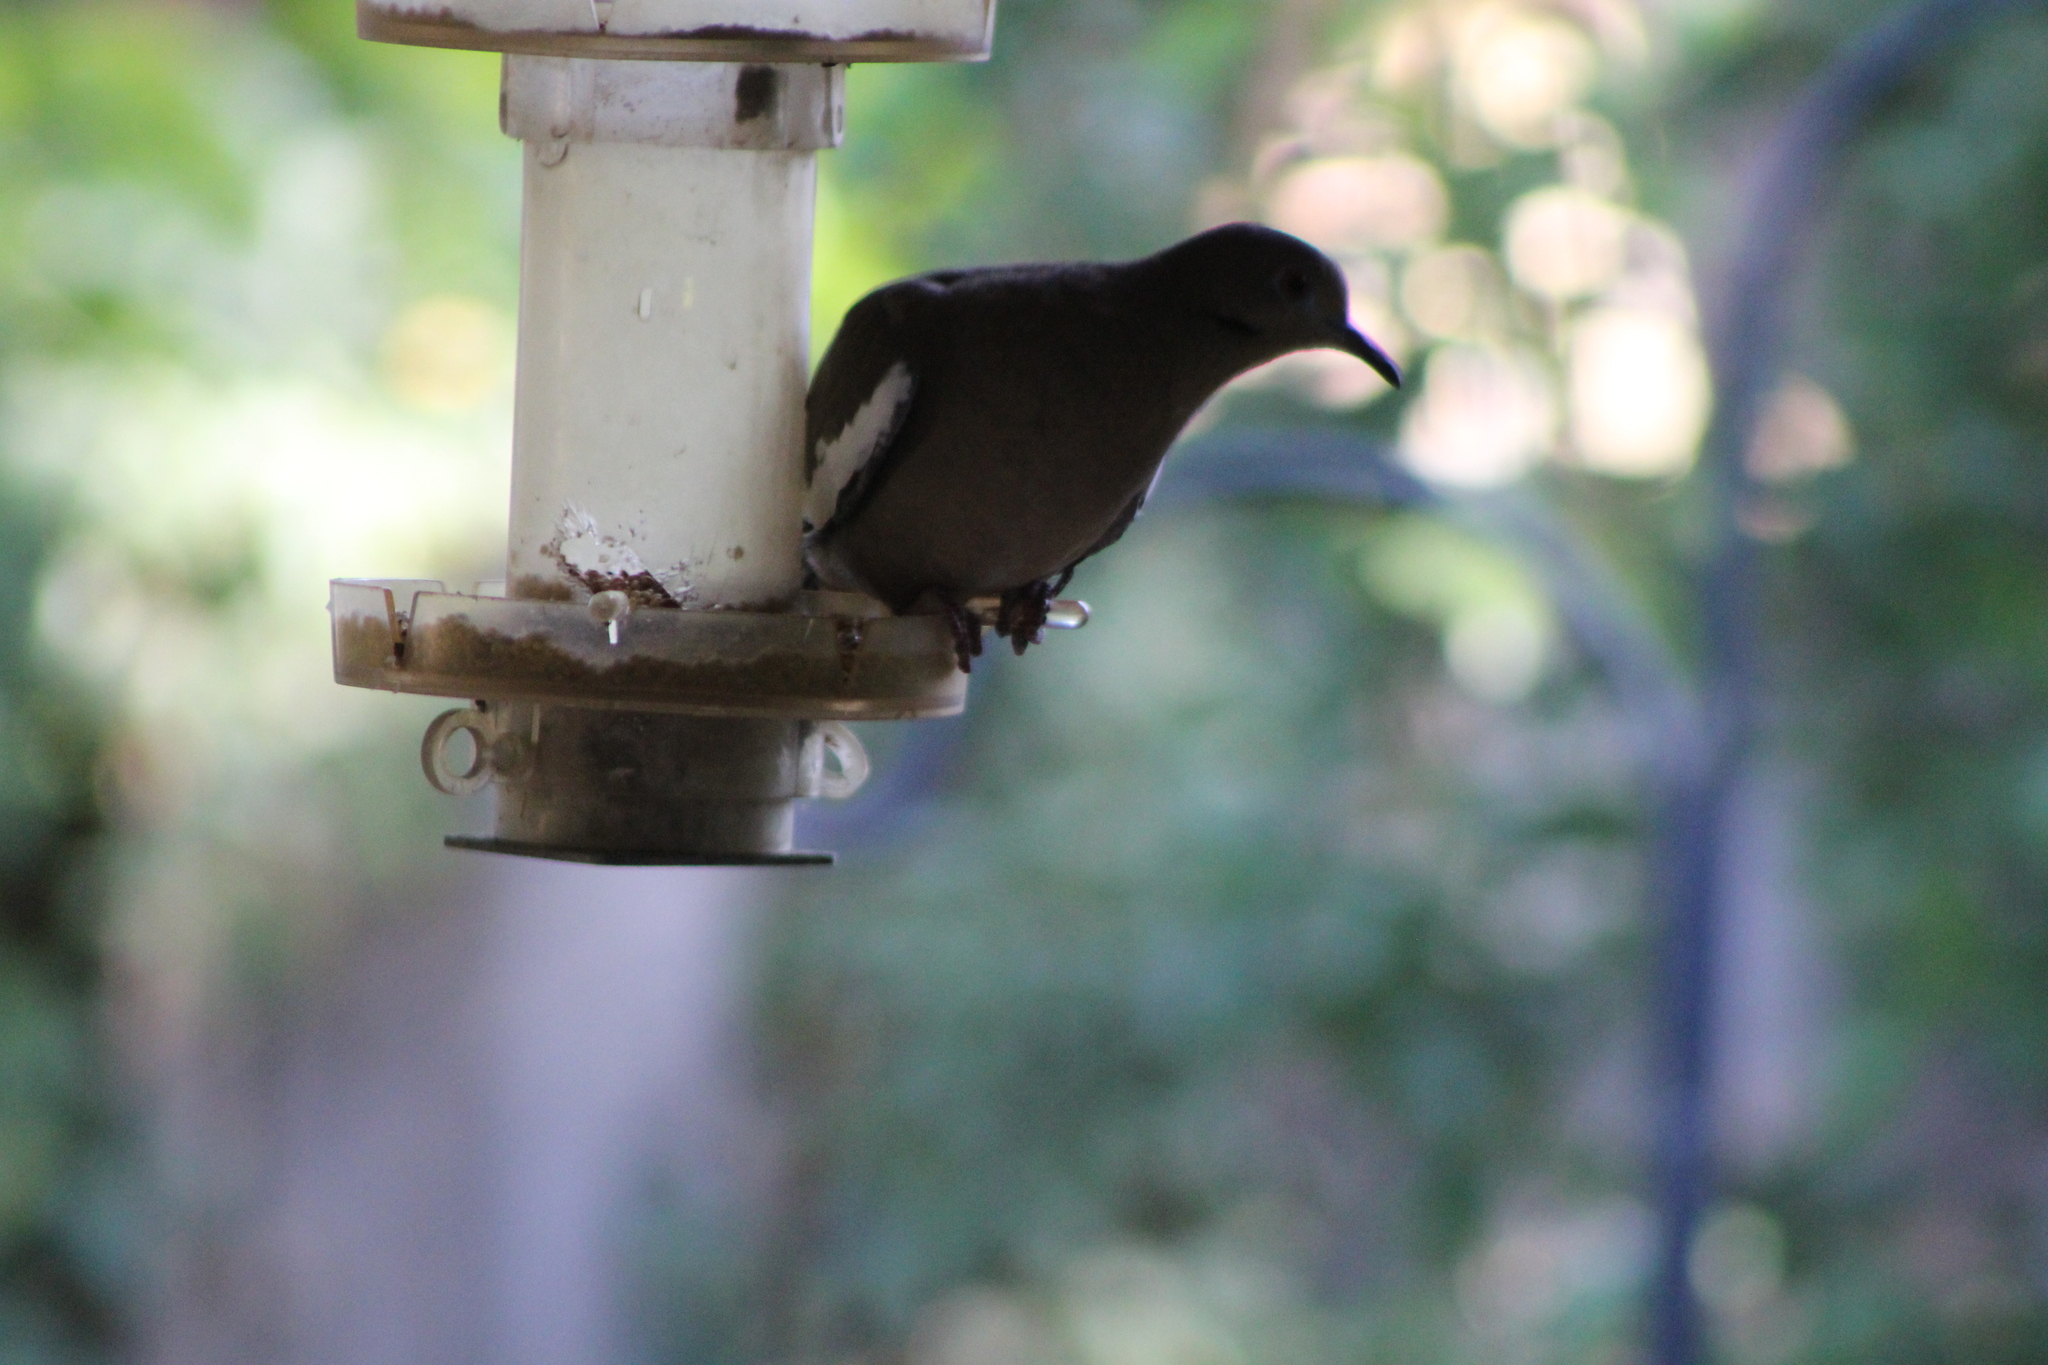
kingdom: Animalia
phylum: Chordata
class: Aves
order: Columbiformes
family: Columbidae
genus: Zenaida
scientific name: Zenaida asiatica
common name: White-winged dove
